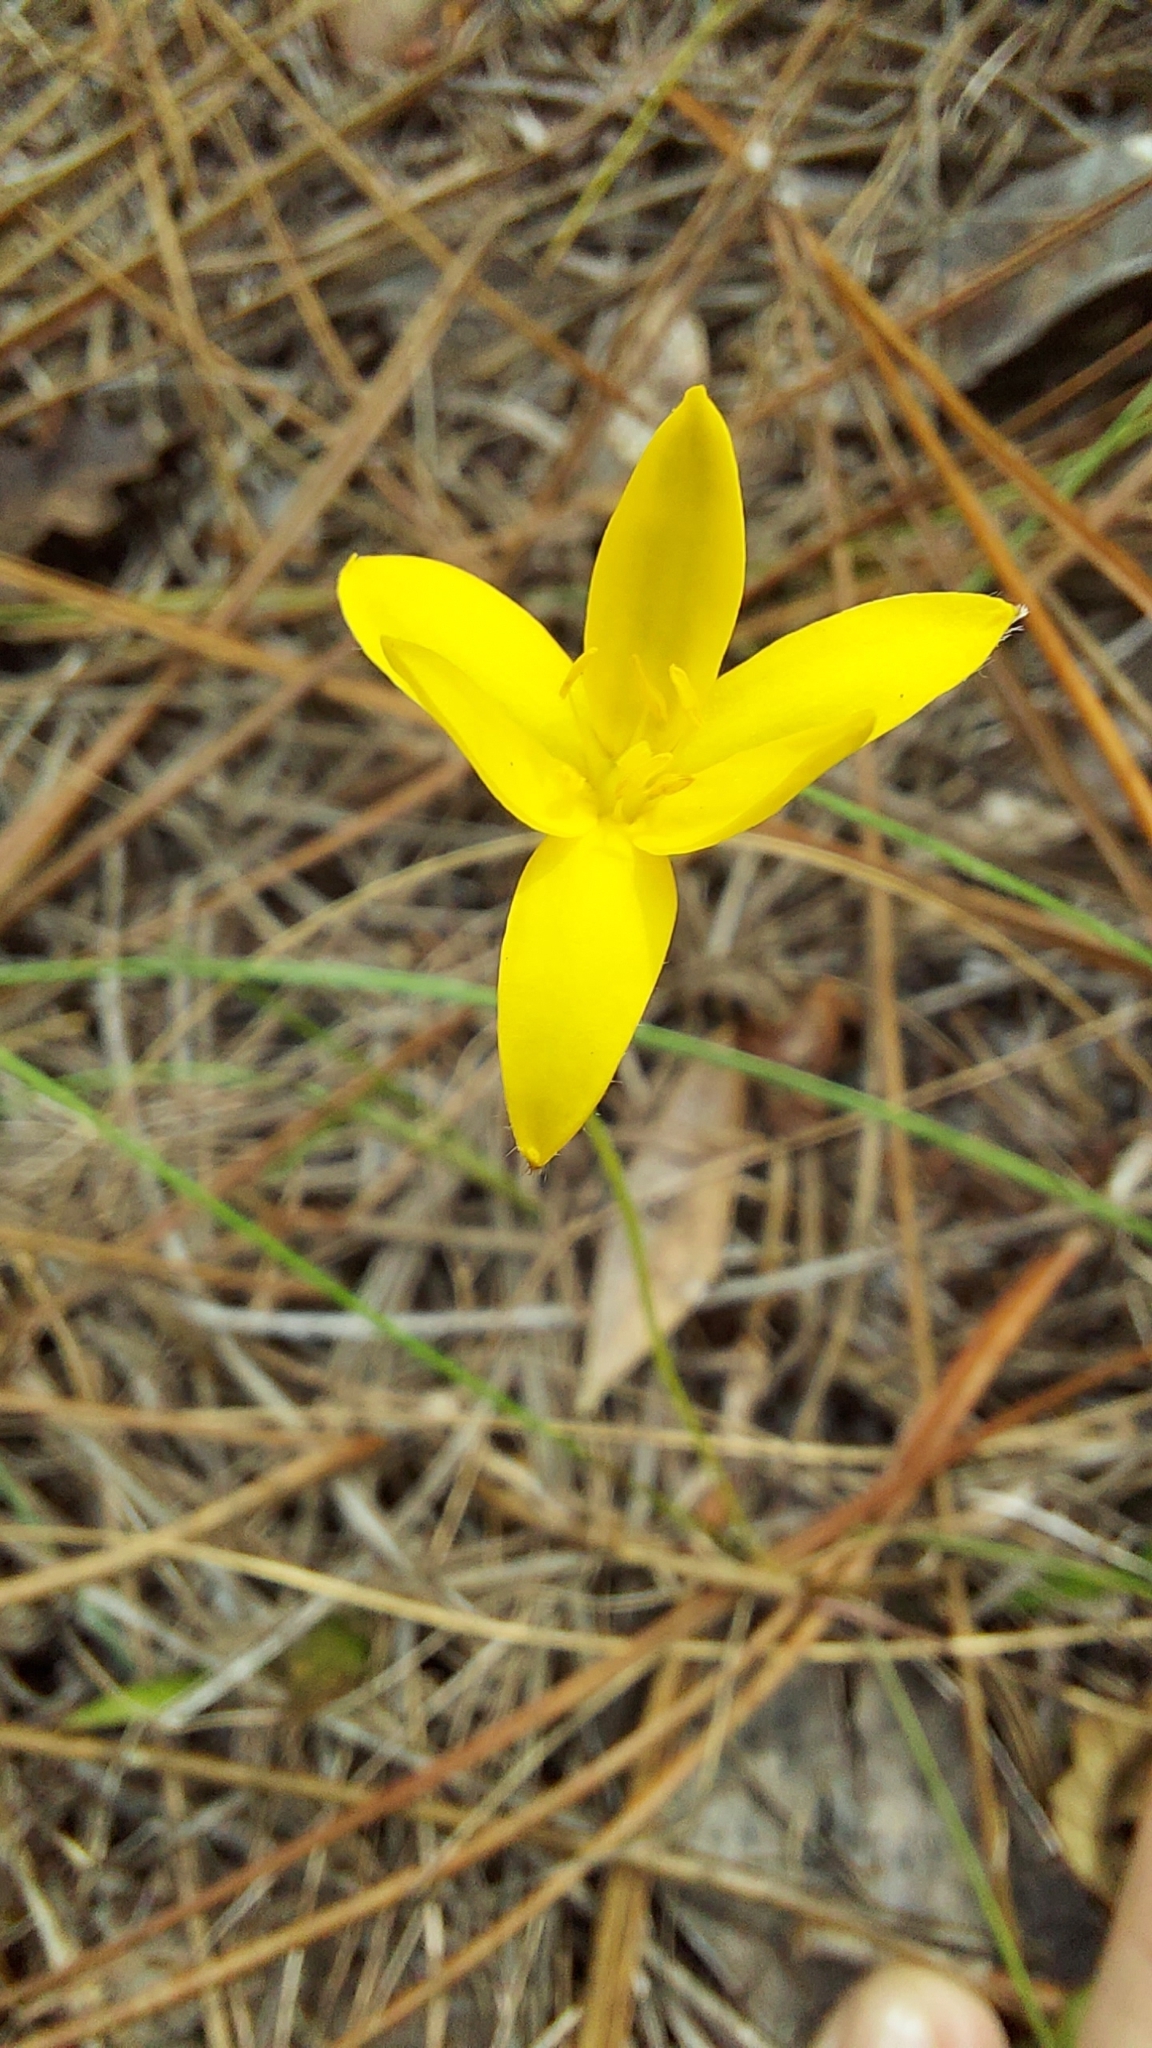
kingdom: Plantae
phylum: Tracheophyta
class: Liliopsida
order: Asparagales
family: Hypoxidaceae
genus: Hypoxis
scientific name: Hypoxis juncea
